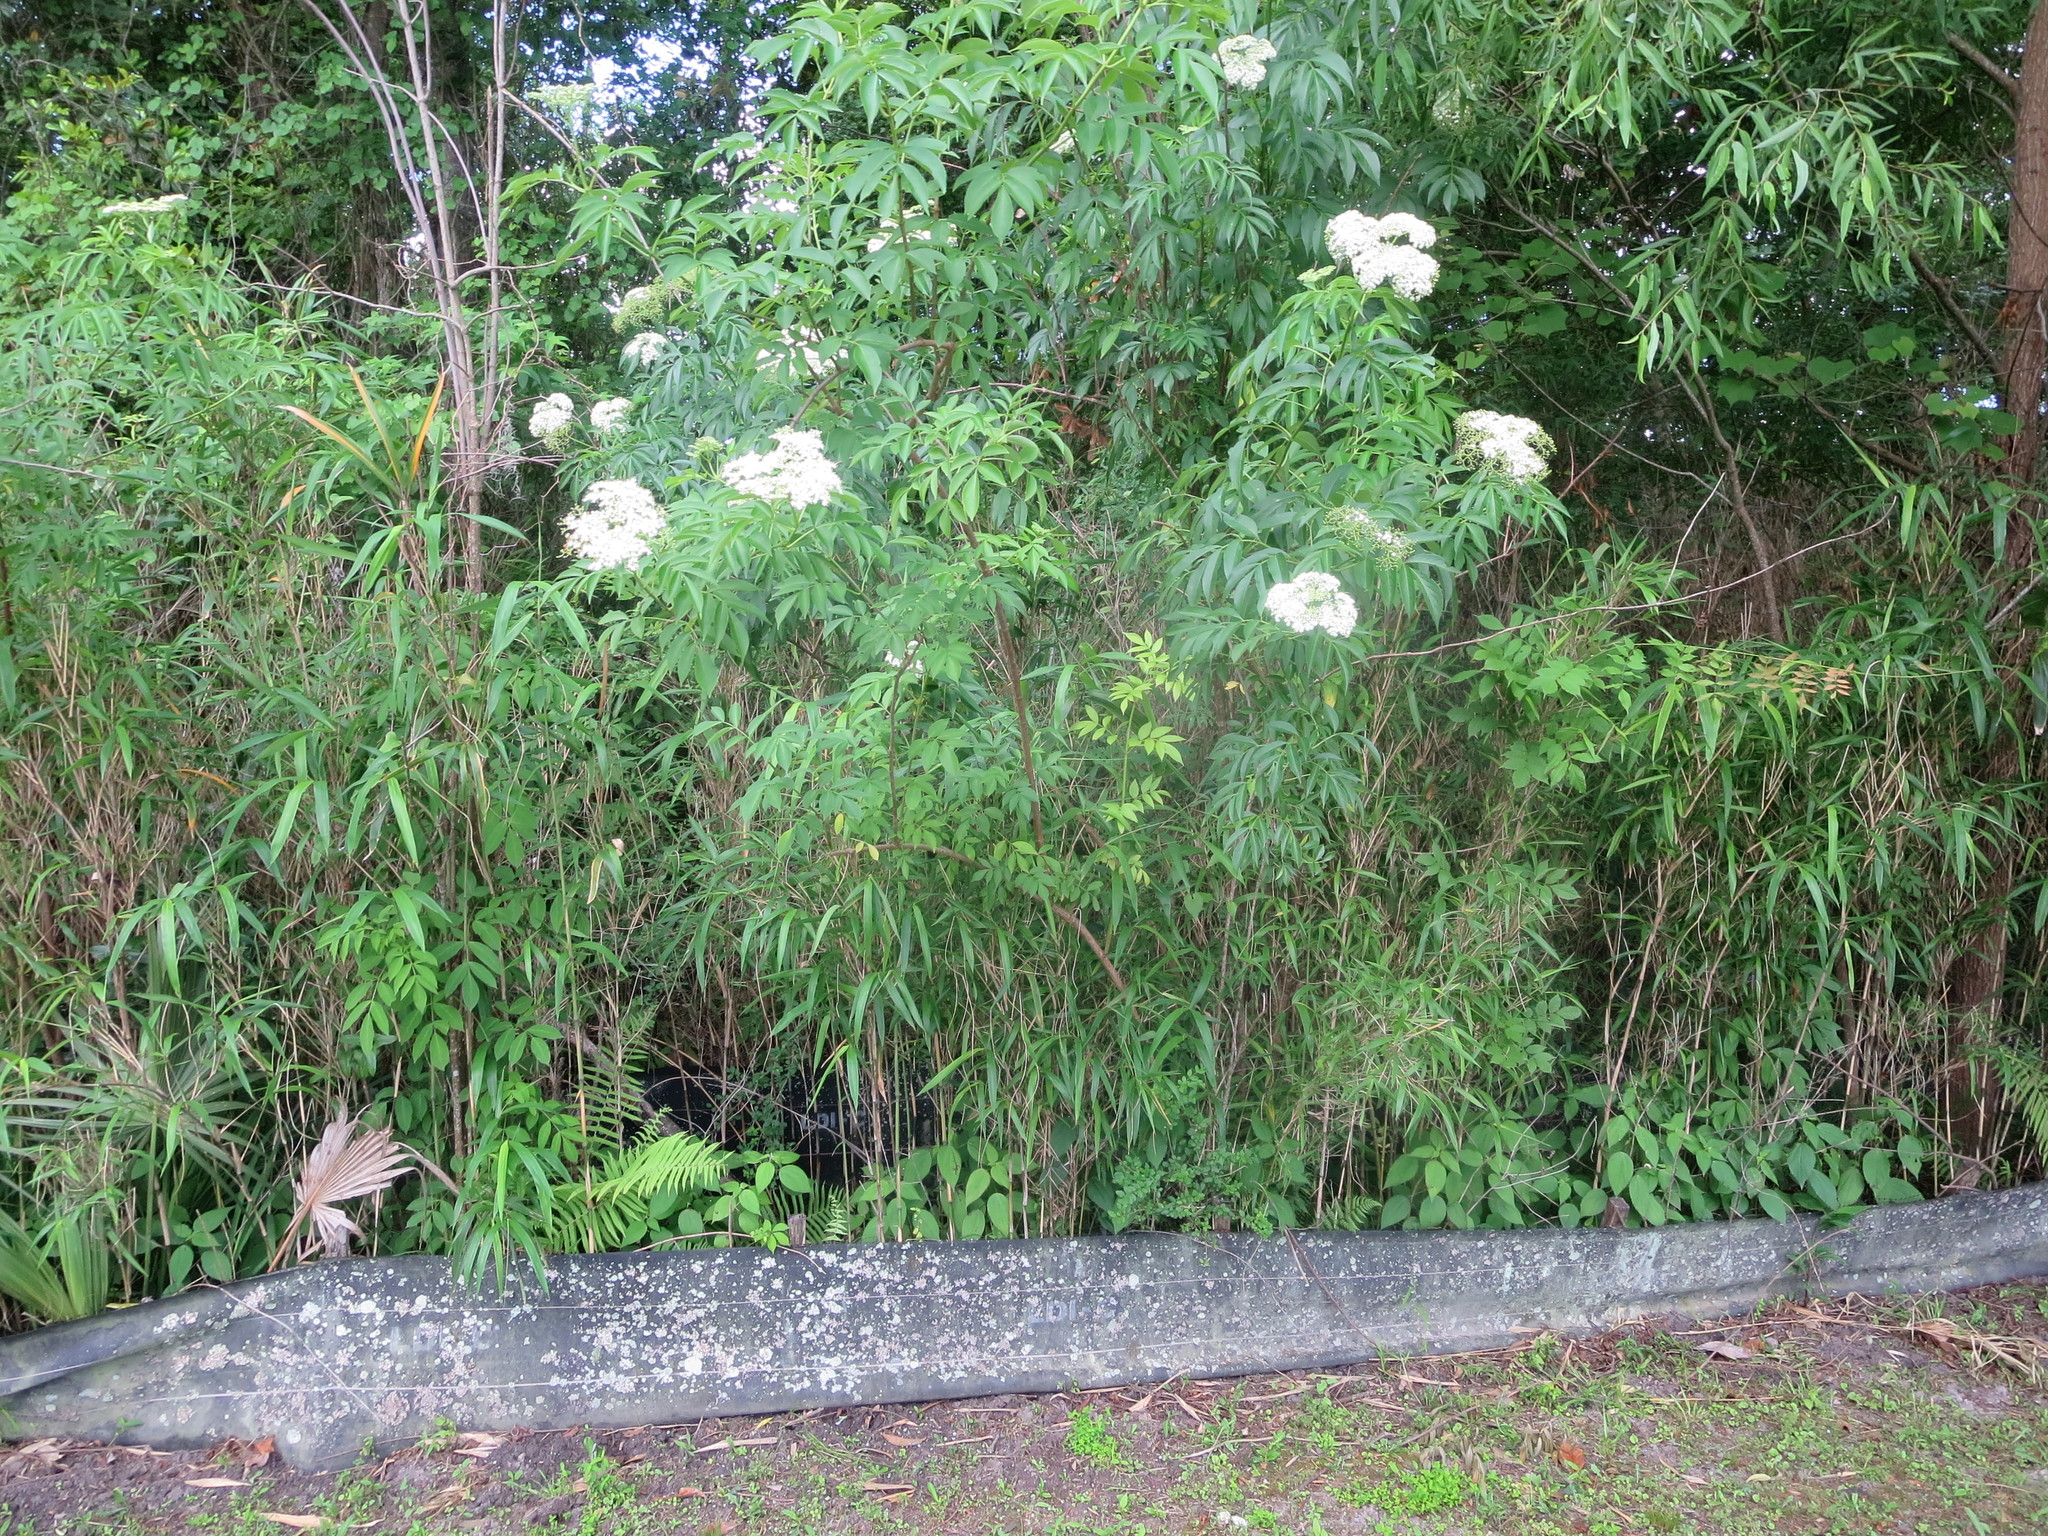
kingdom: Plantae
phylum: Tracheophyta
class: Magnoliopsida
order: Dipsacales
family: Viburnaceae
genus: Sambucus
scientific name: Sambucus canadensis
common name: American elder
